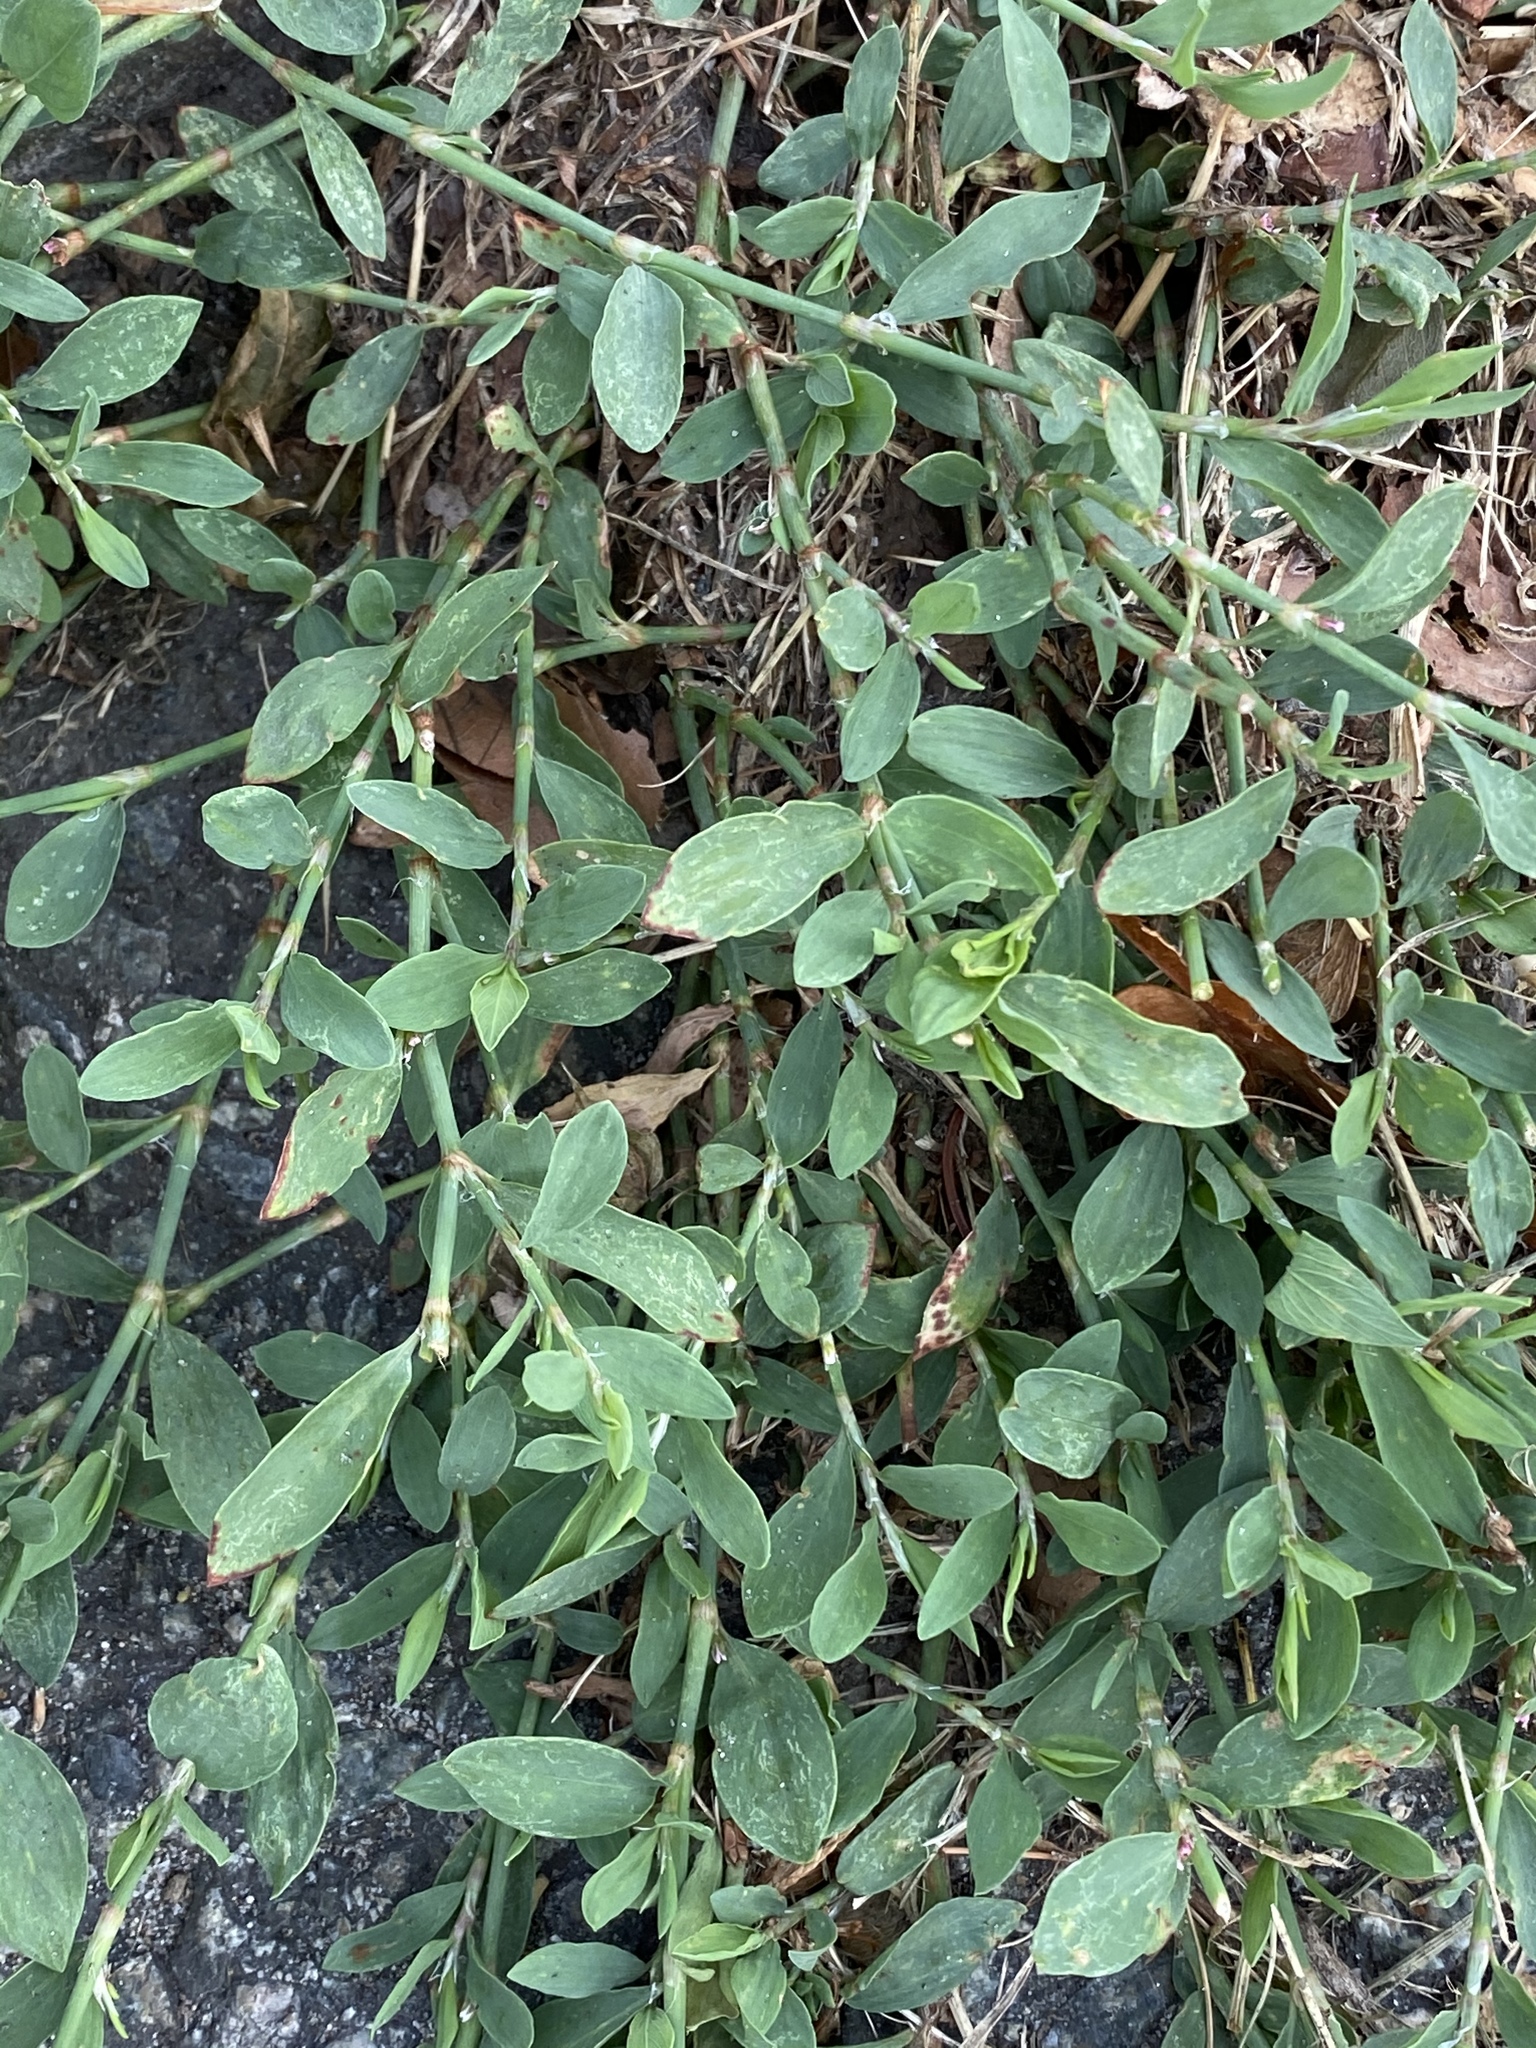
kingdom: Plantae
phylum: Tracheophyta
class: Magnoliopsida
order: Caryophyllales
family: Polygonaceae
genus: Polygonum
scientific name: Polygonum aviculare
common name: Prostrate knotweed
